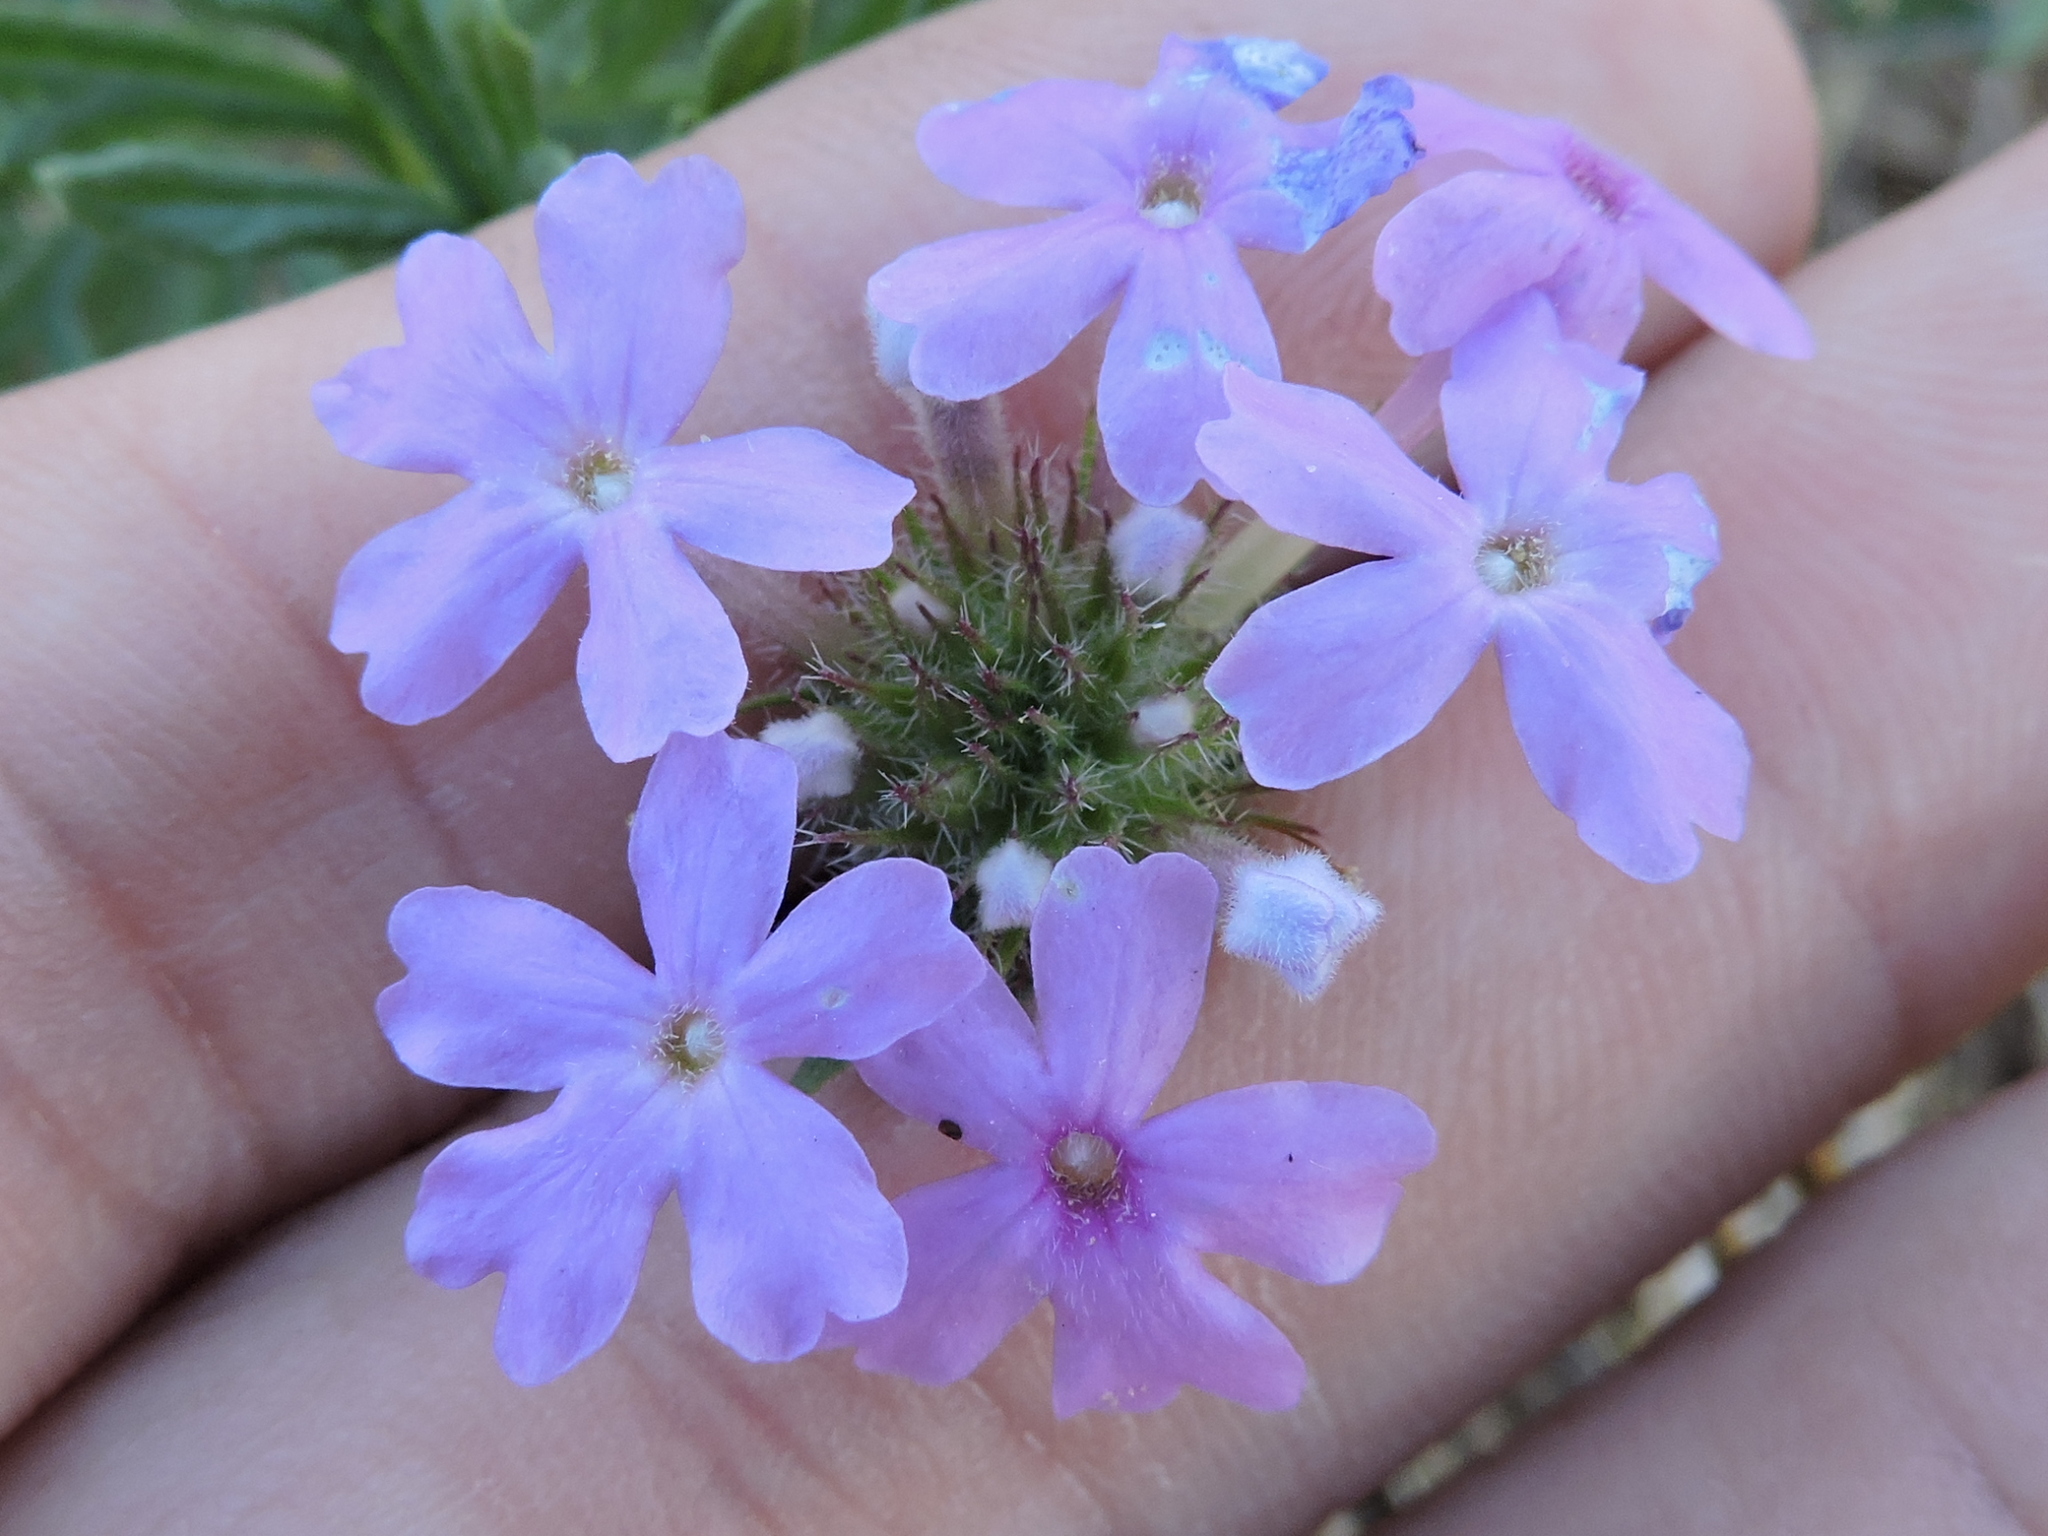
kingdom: Plantae
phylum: Tracheophyta
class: Magnoliopsida
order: Lamiales
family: Verbenaceae
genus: Verbena
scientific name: Verbena bipinnatifida
